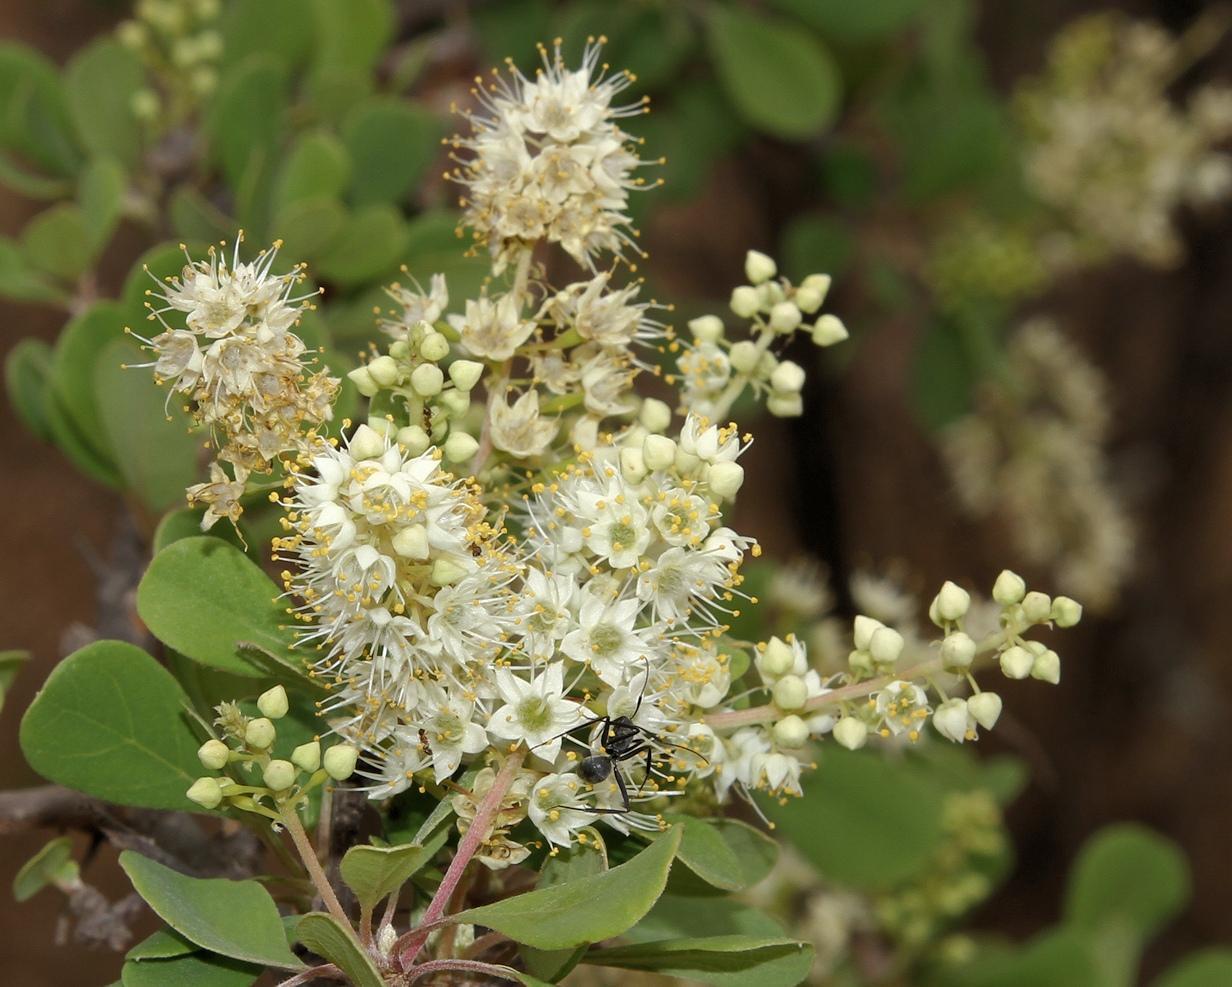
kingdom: Plantae
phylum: Tracheophyta
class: Magnoliopsida
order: Myrtales
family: Combretaceae
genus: Terminalia
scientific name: Terminalia prunioides
